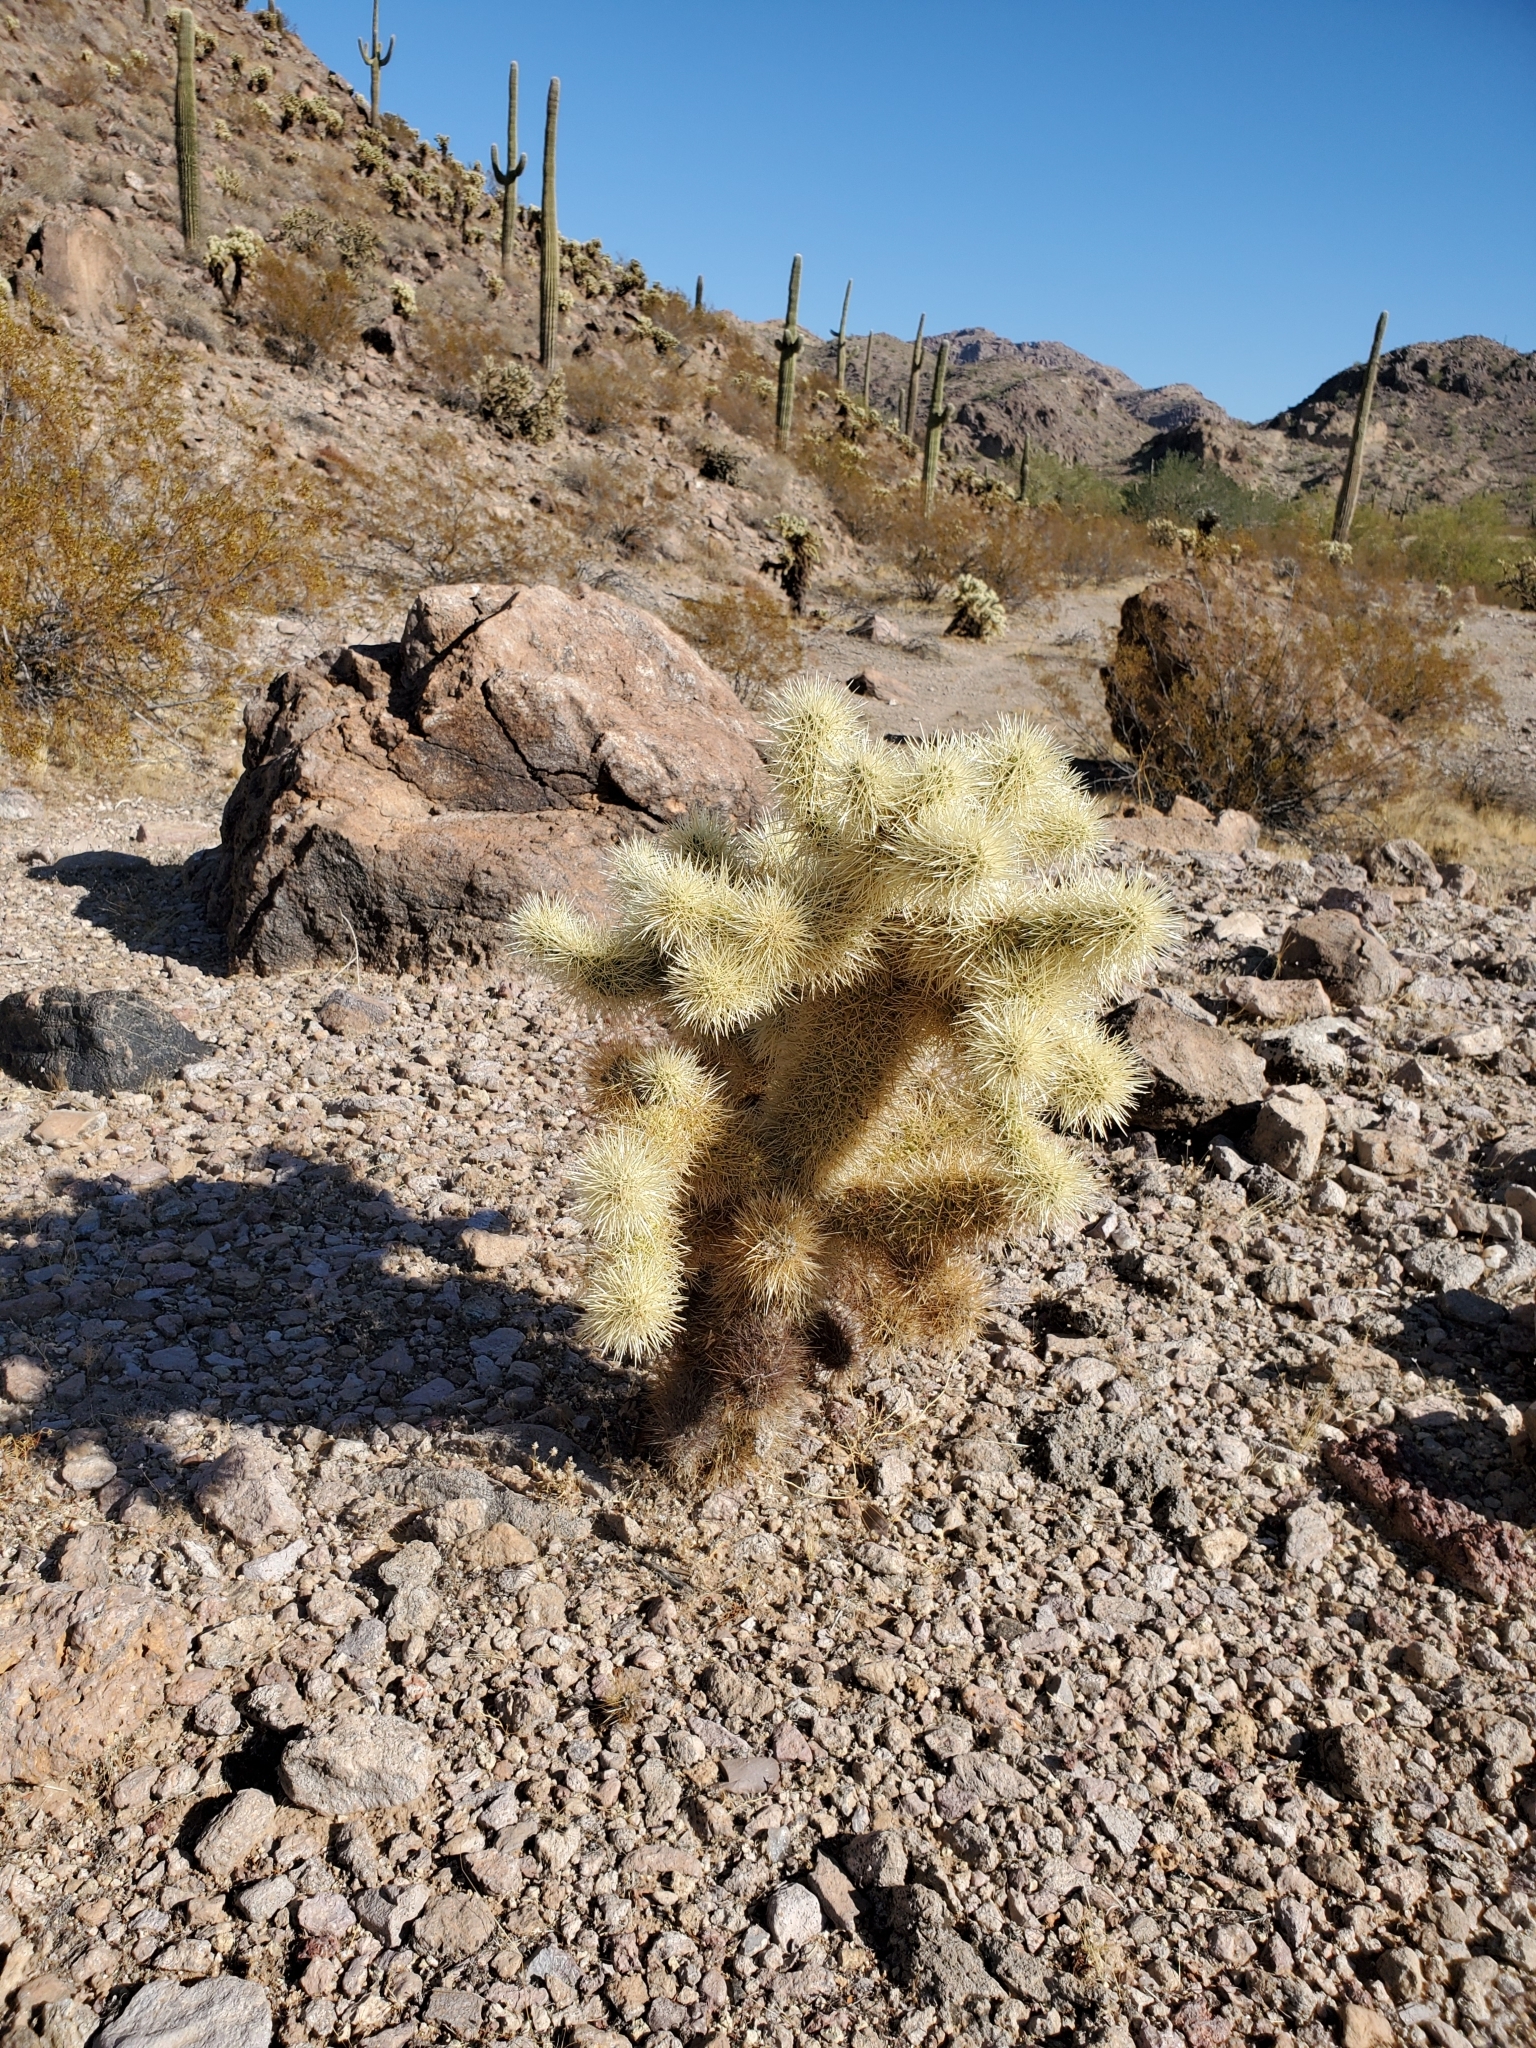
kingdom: Plantae
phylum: Tracheophyta
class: Magnoliopsida
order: Caryophyllales
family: Cactaceae
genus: Cylindropuntia
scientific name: Cylindropuntia fosbergii
